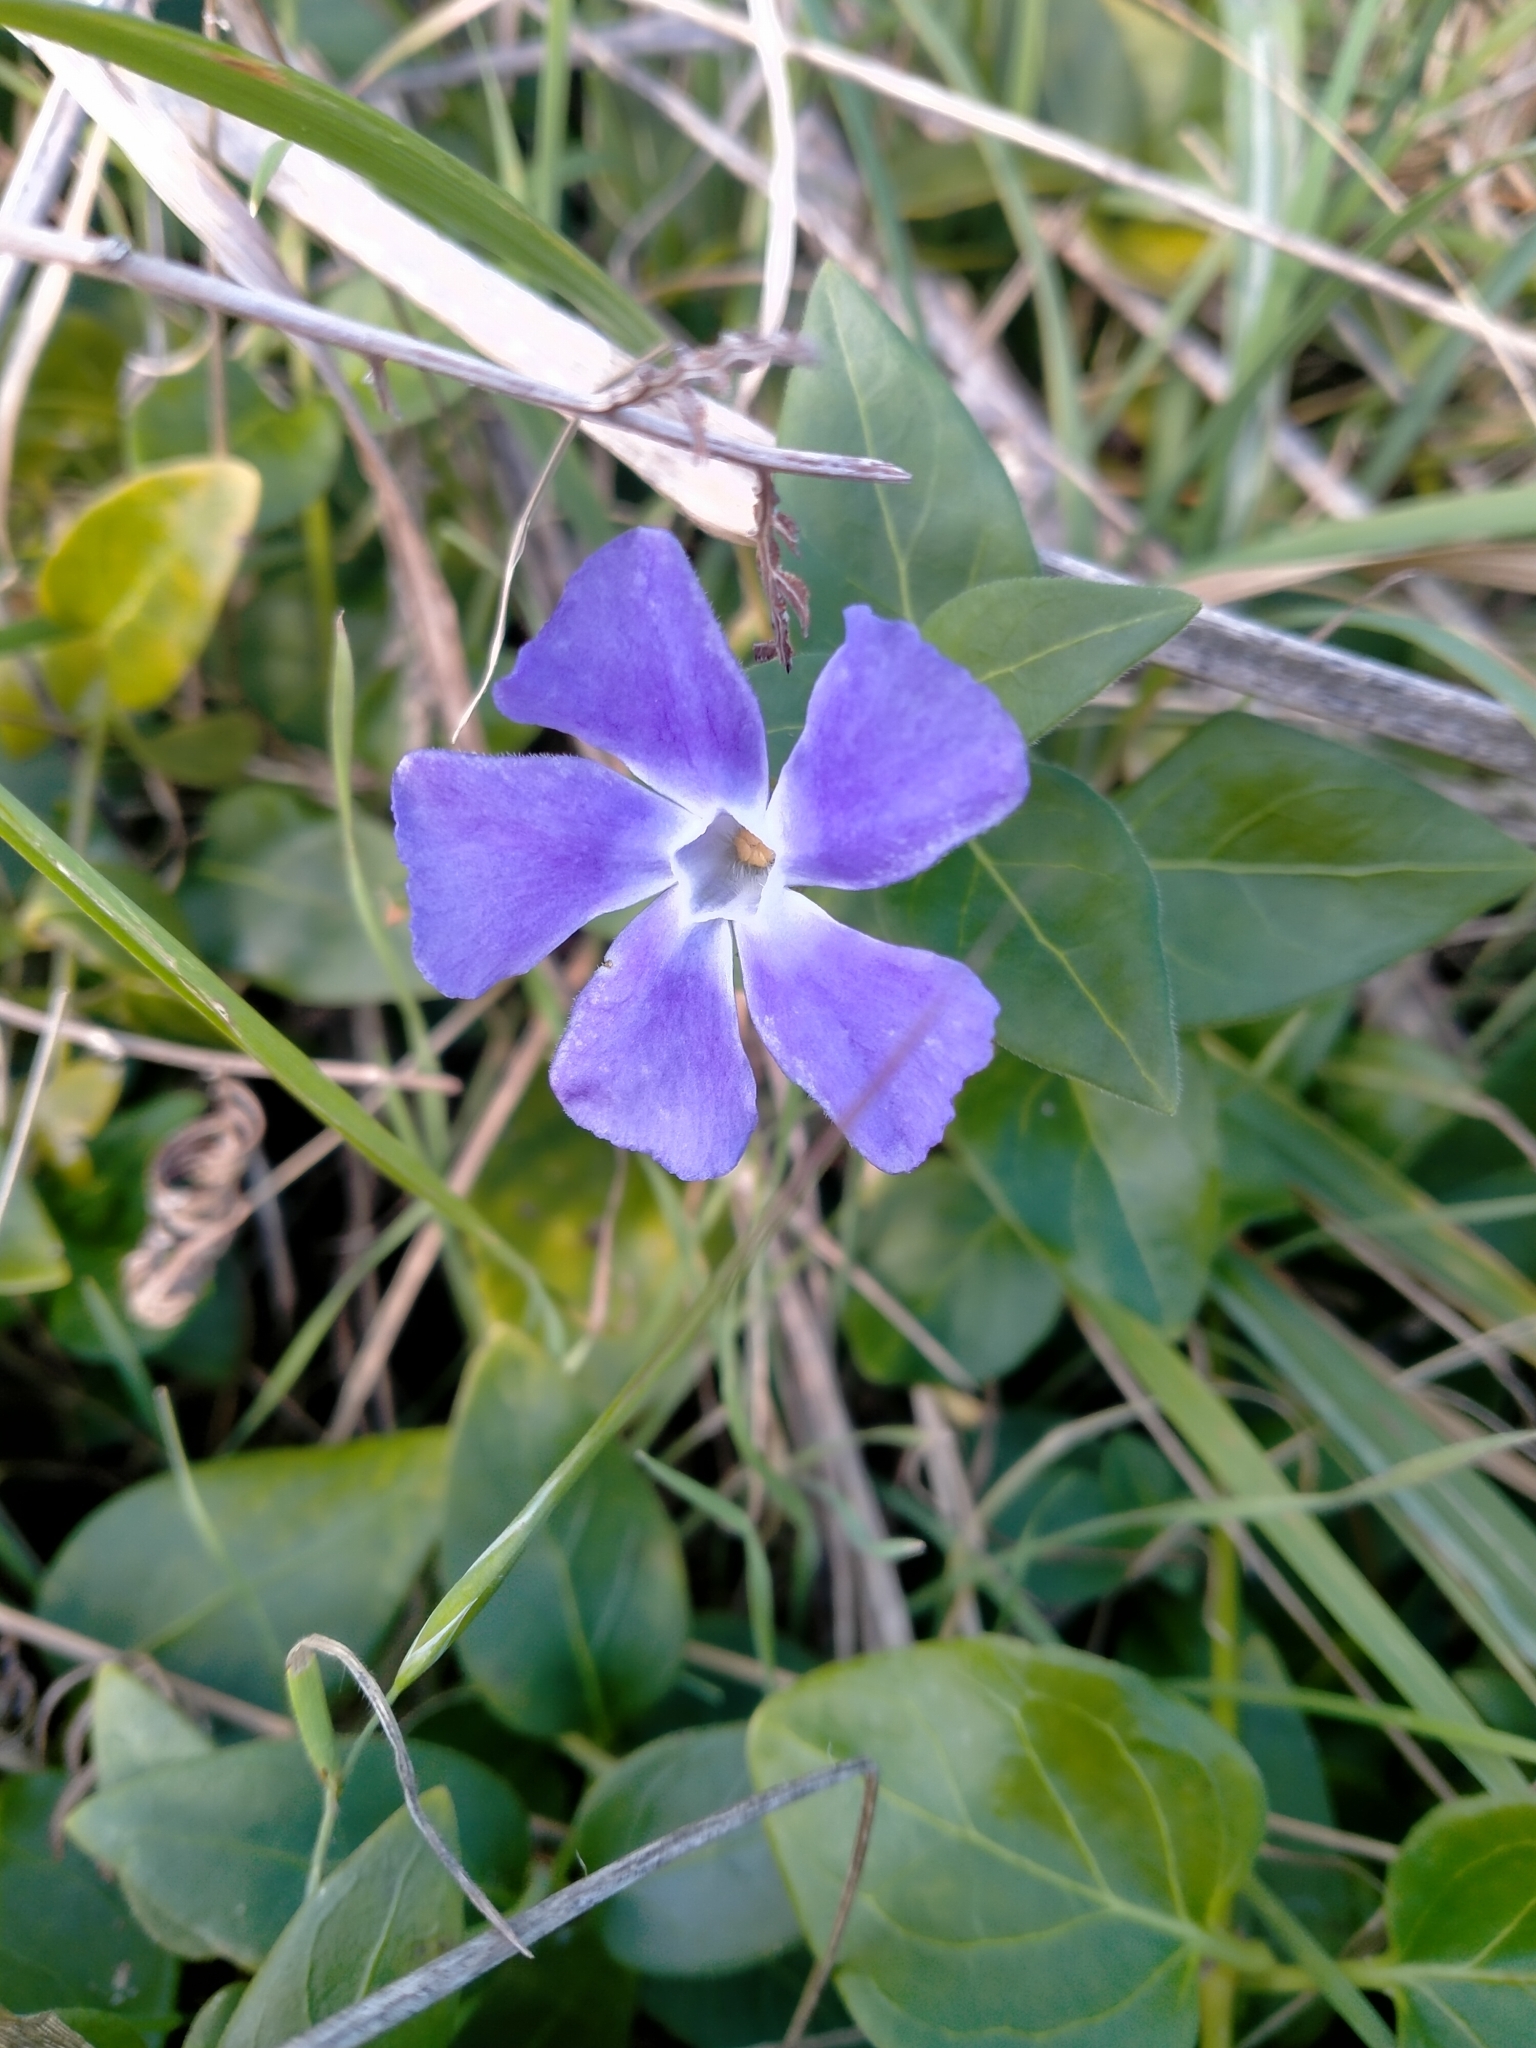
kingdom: Plantae
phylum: Tracheophyta
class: Magnoliopsida
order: Gentianales
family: Apocynaceae
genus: Vinca
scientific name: Vinca major
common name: Greater periwinkle
